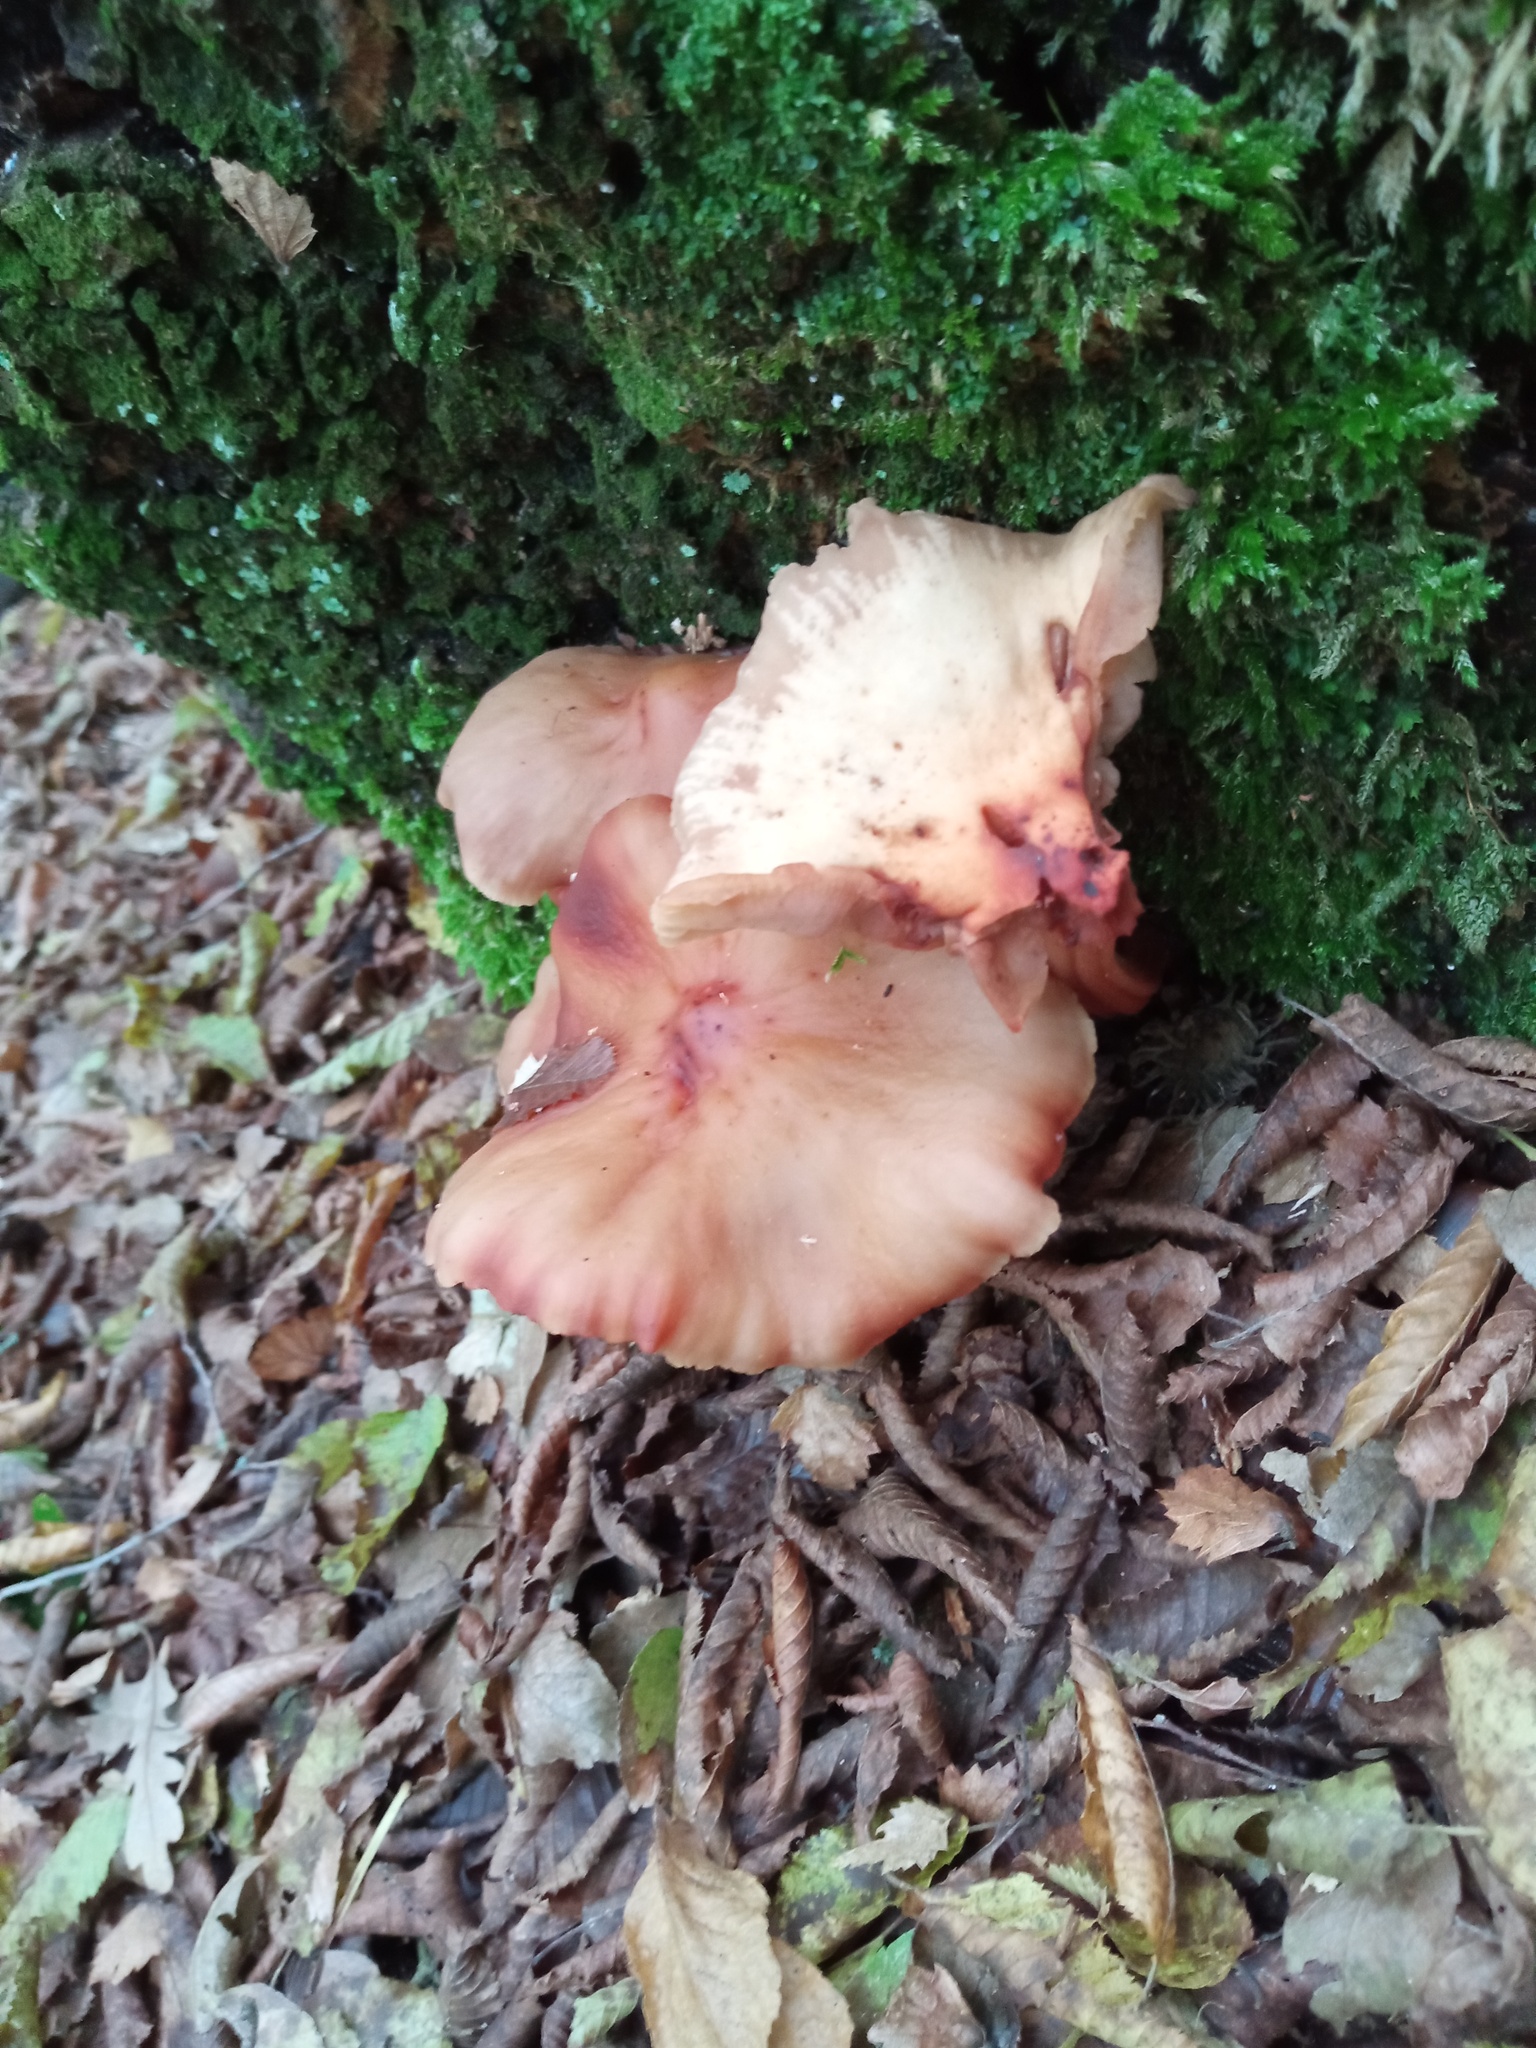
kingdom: Fungi
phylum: Basidiomycota
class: Agaricomycetes
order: Agaricales
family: Omphalotaceae
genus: Gymnopus
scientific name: Gymnopus fusipes
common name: Spindle shank
